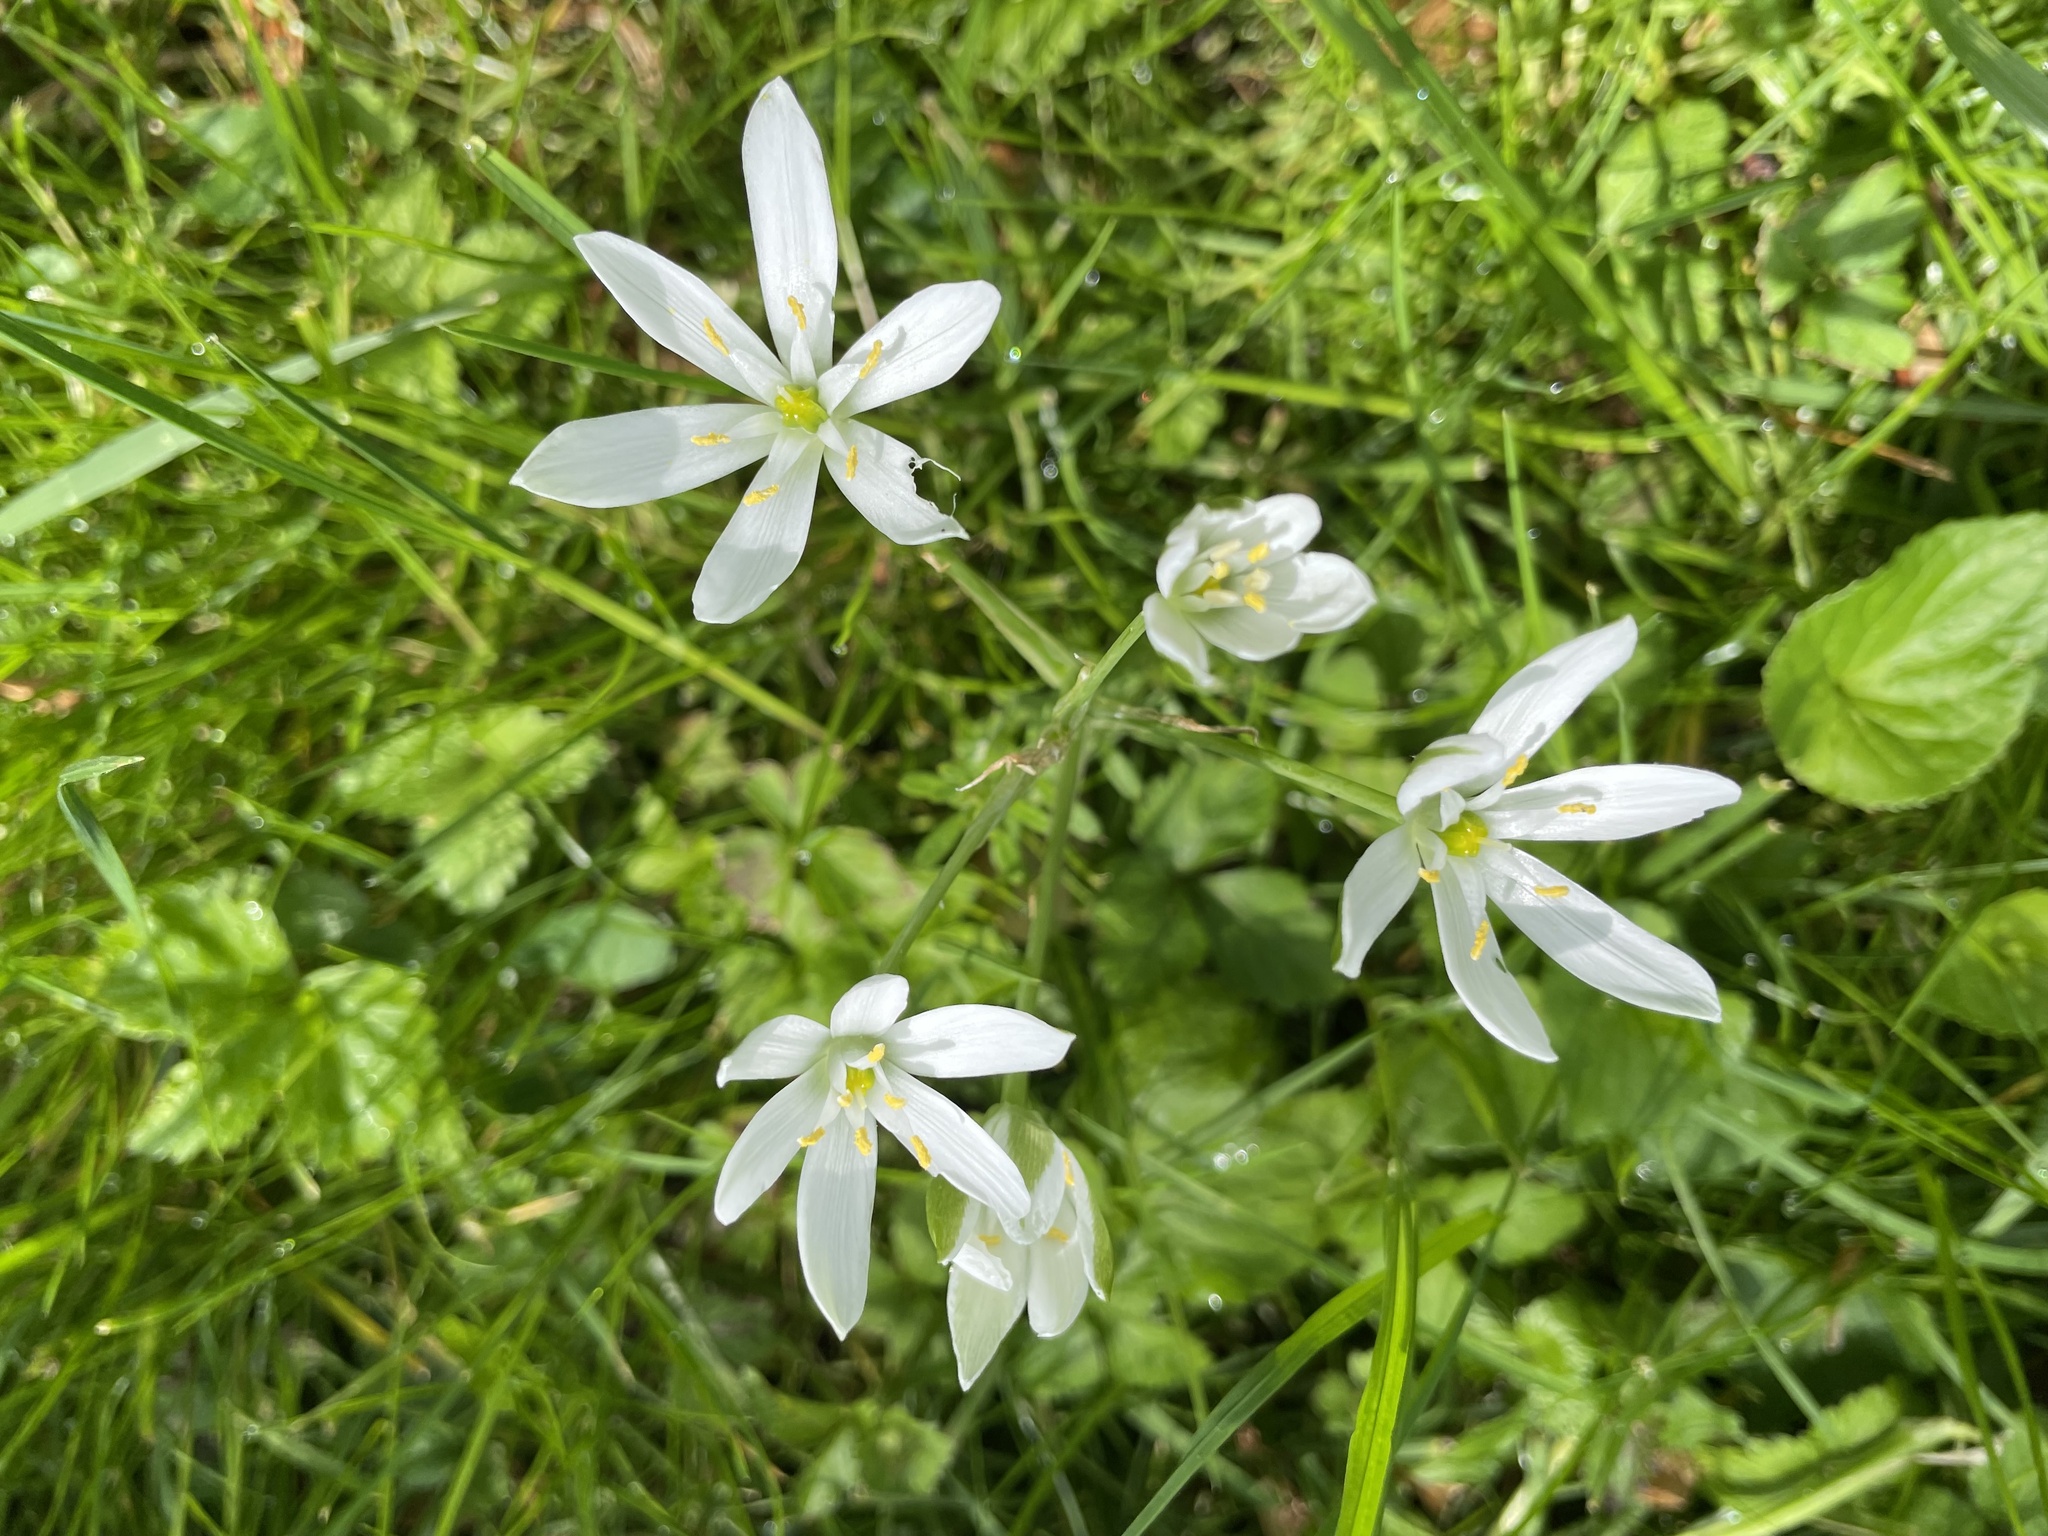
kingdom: Plantae
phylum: Tracheophyta
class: Liliopsida
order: Asparagales
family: Asparagaceae
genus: Ornithogalum
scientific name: Ornithogalum umbellatum
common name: Garden star-of-bethlehem
